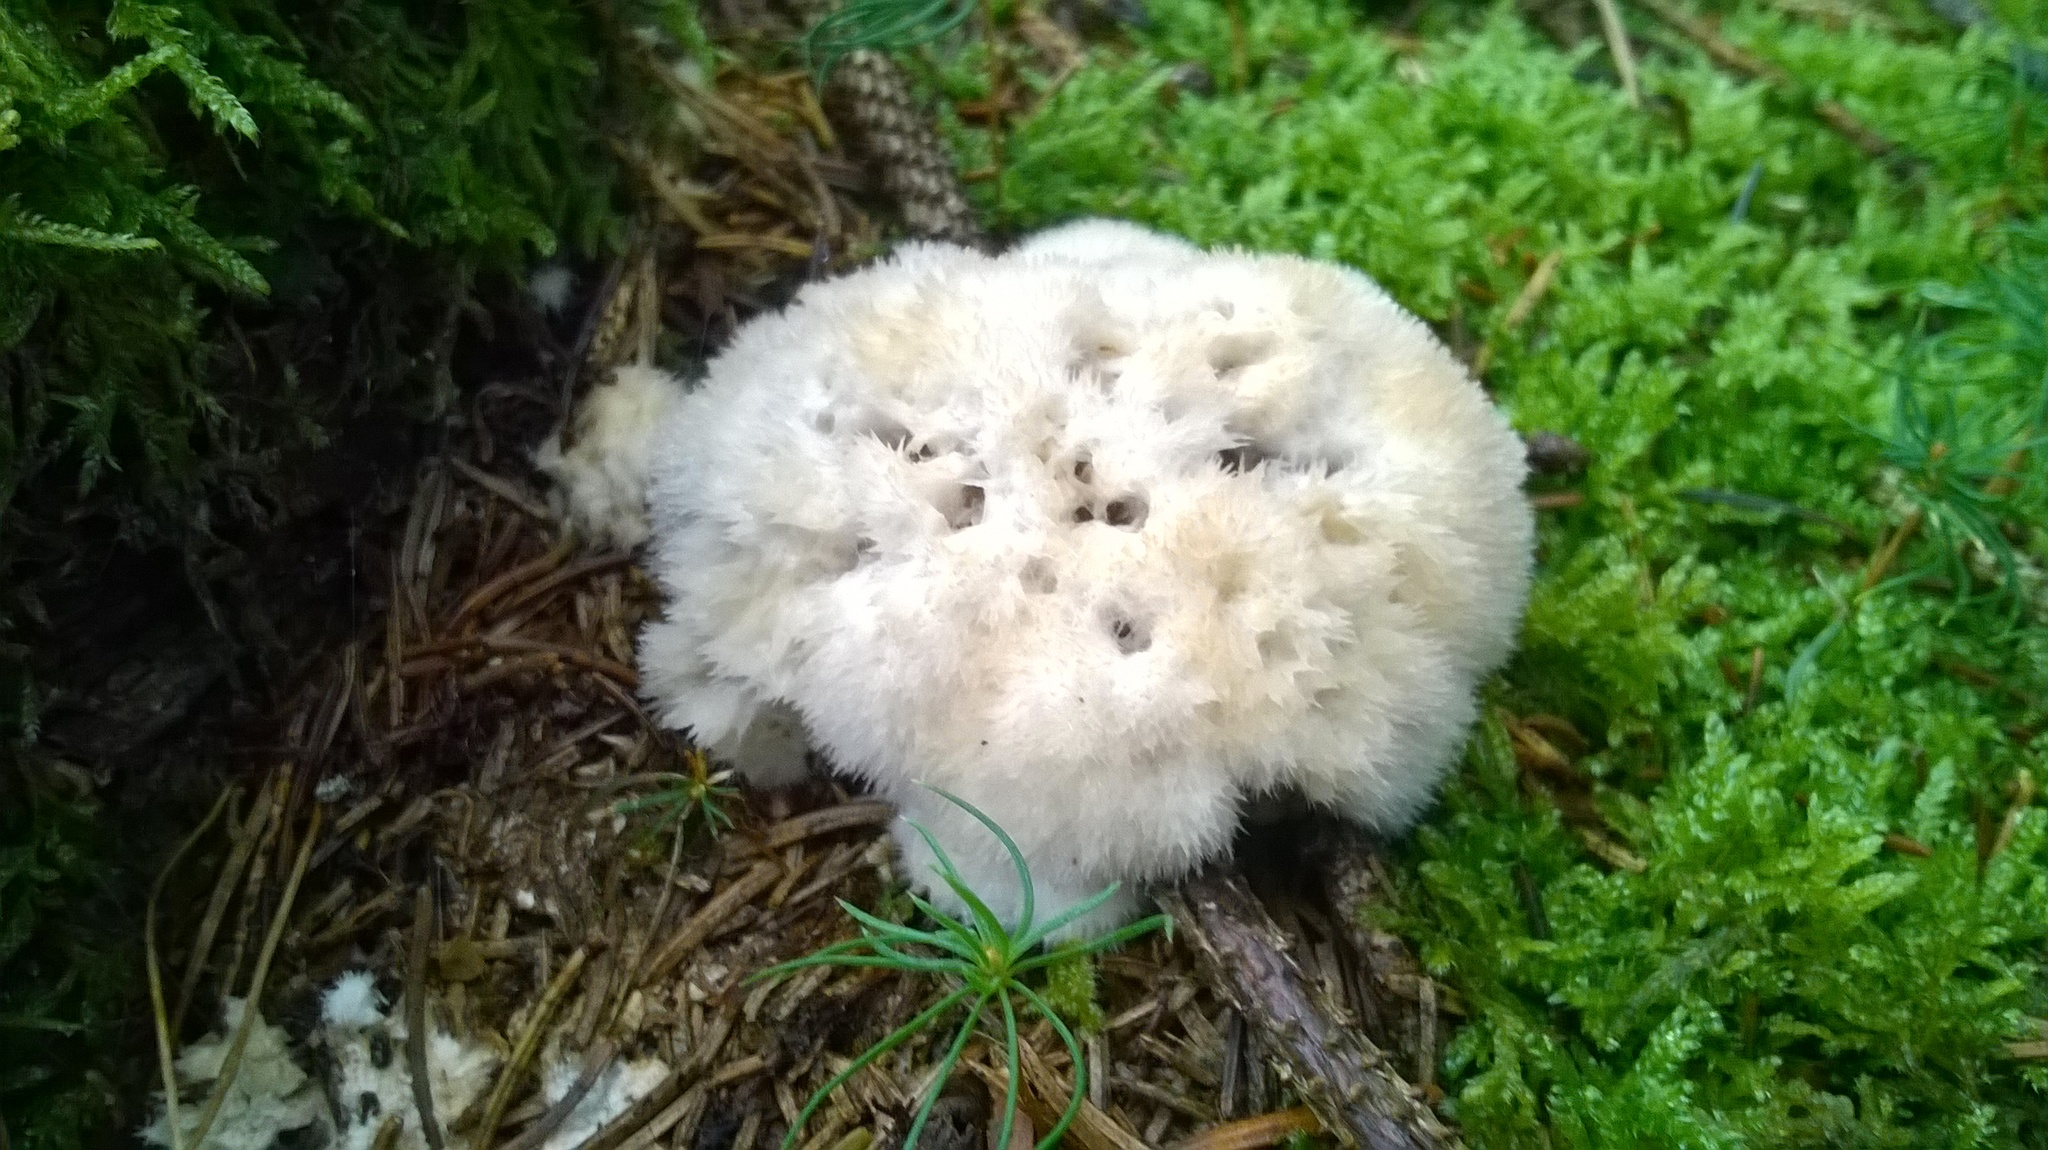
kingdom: Fungi
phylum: Basidiomycota
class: Agaricomycetes
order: Polyporales
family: Dacryobolaceae
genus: Postia
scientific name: Postia ptychogaster
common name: Powderpuff bracket
